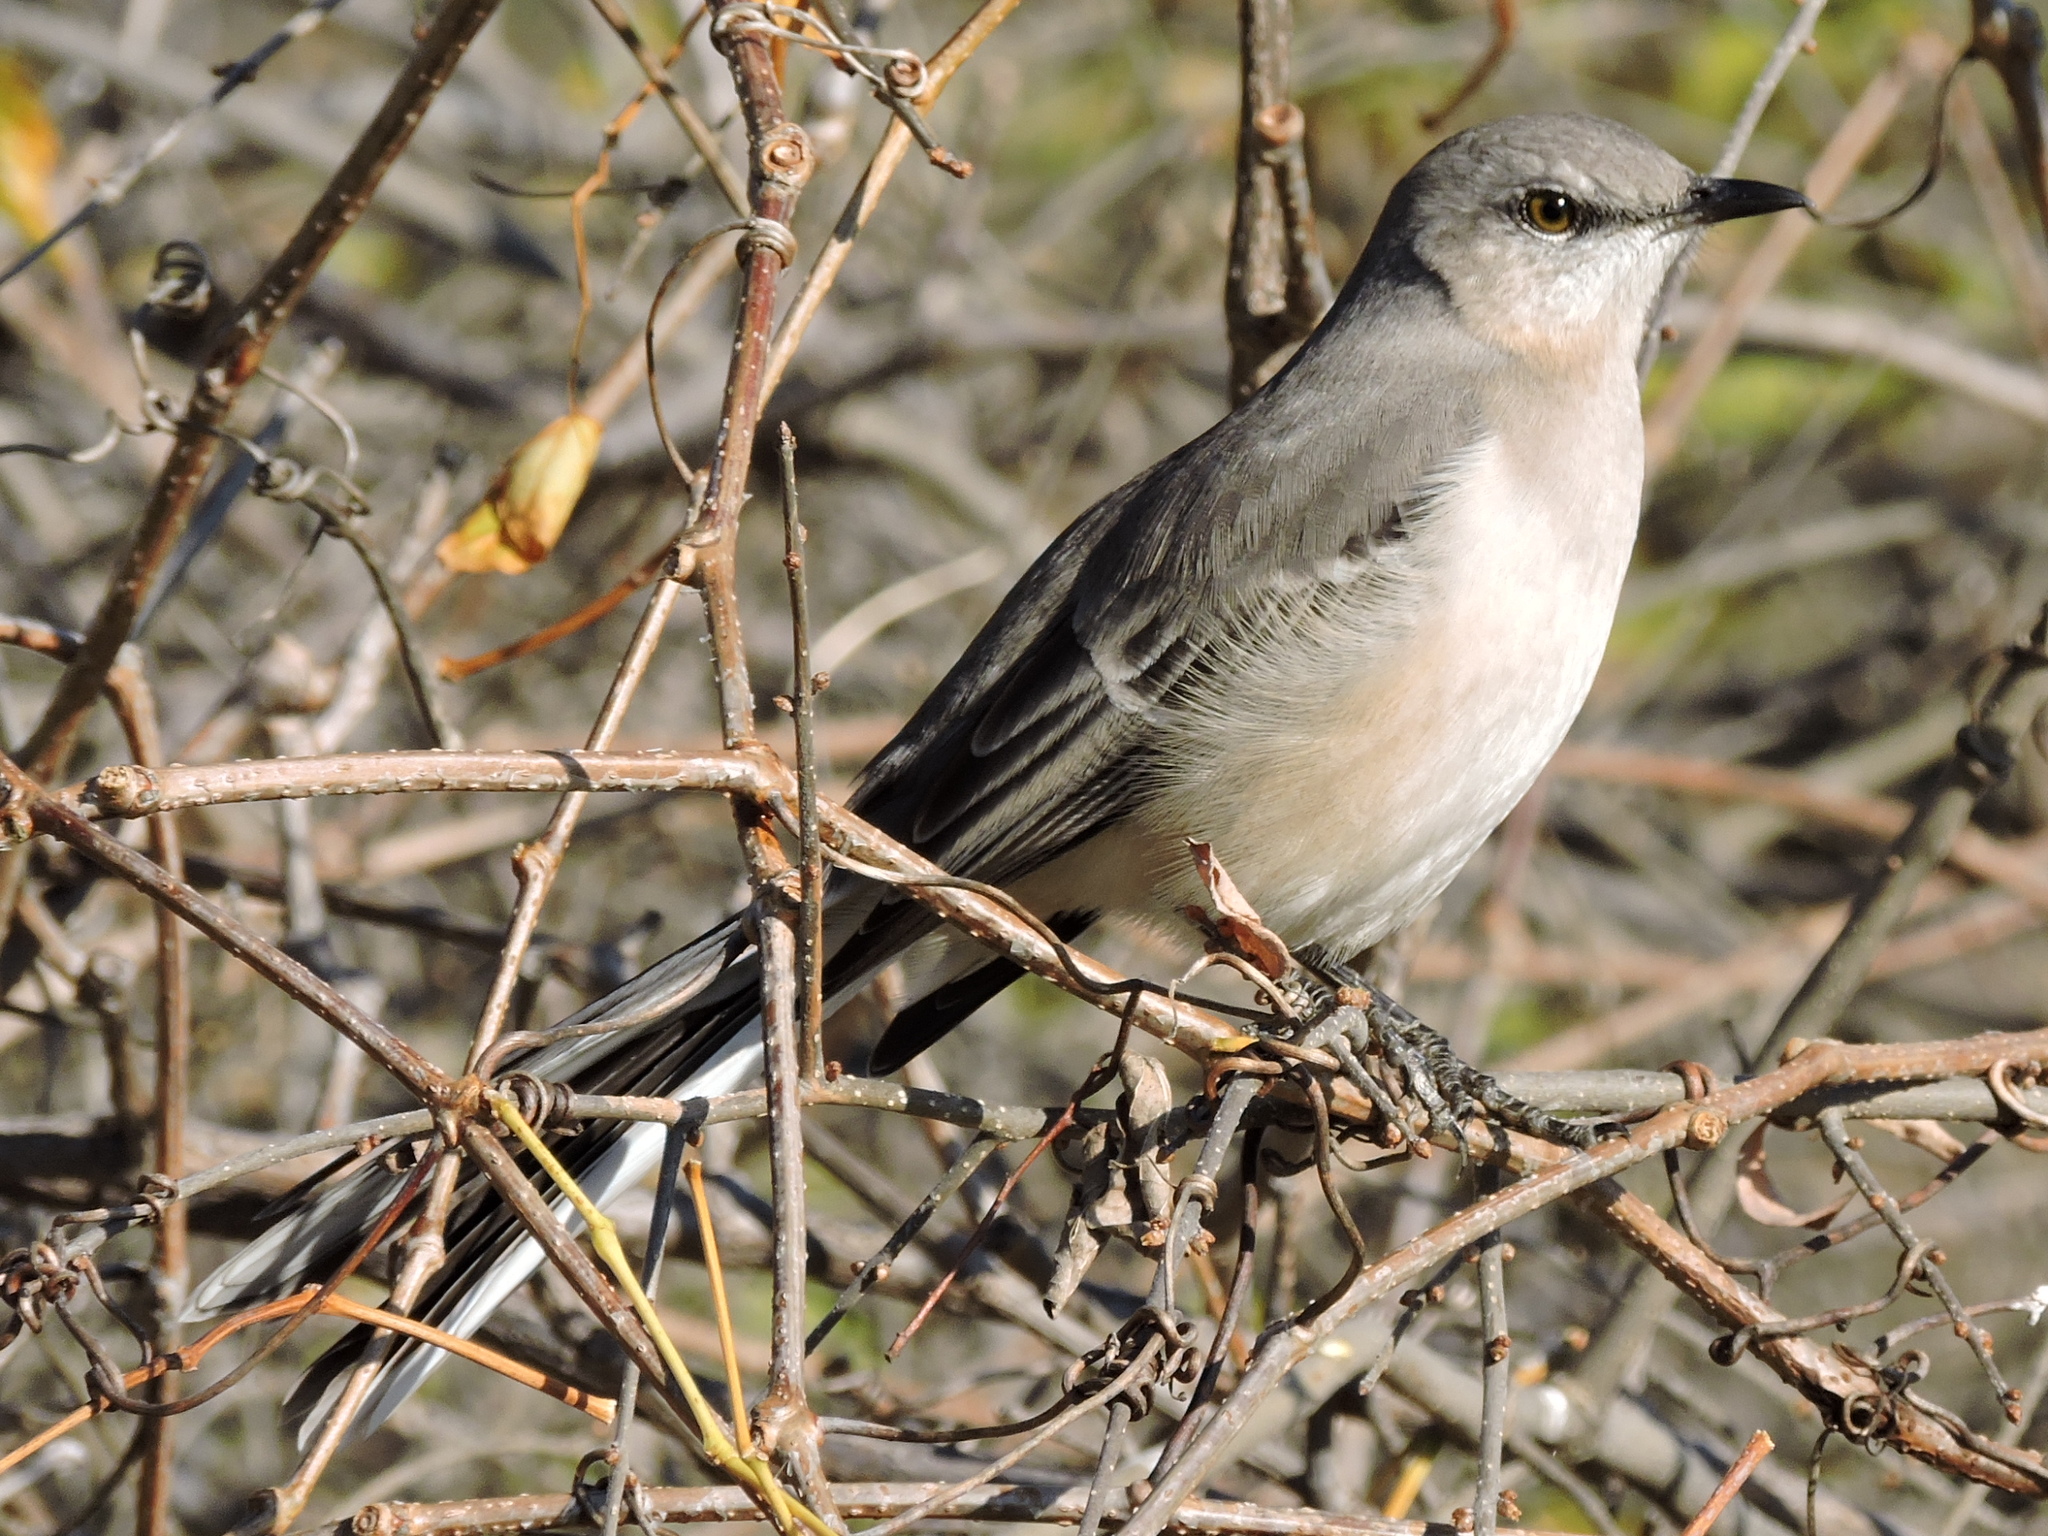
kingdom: Animalia
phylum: Chordata
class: Aves
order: Passeriformes
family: Mimidae
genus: Mimus
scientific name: Mimus polyglottos
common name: Northern mockingbird
